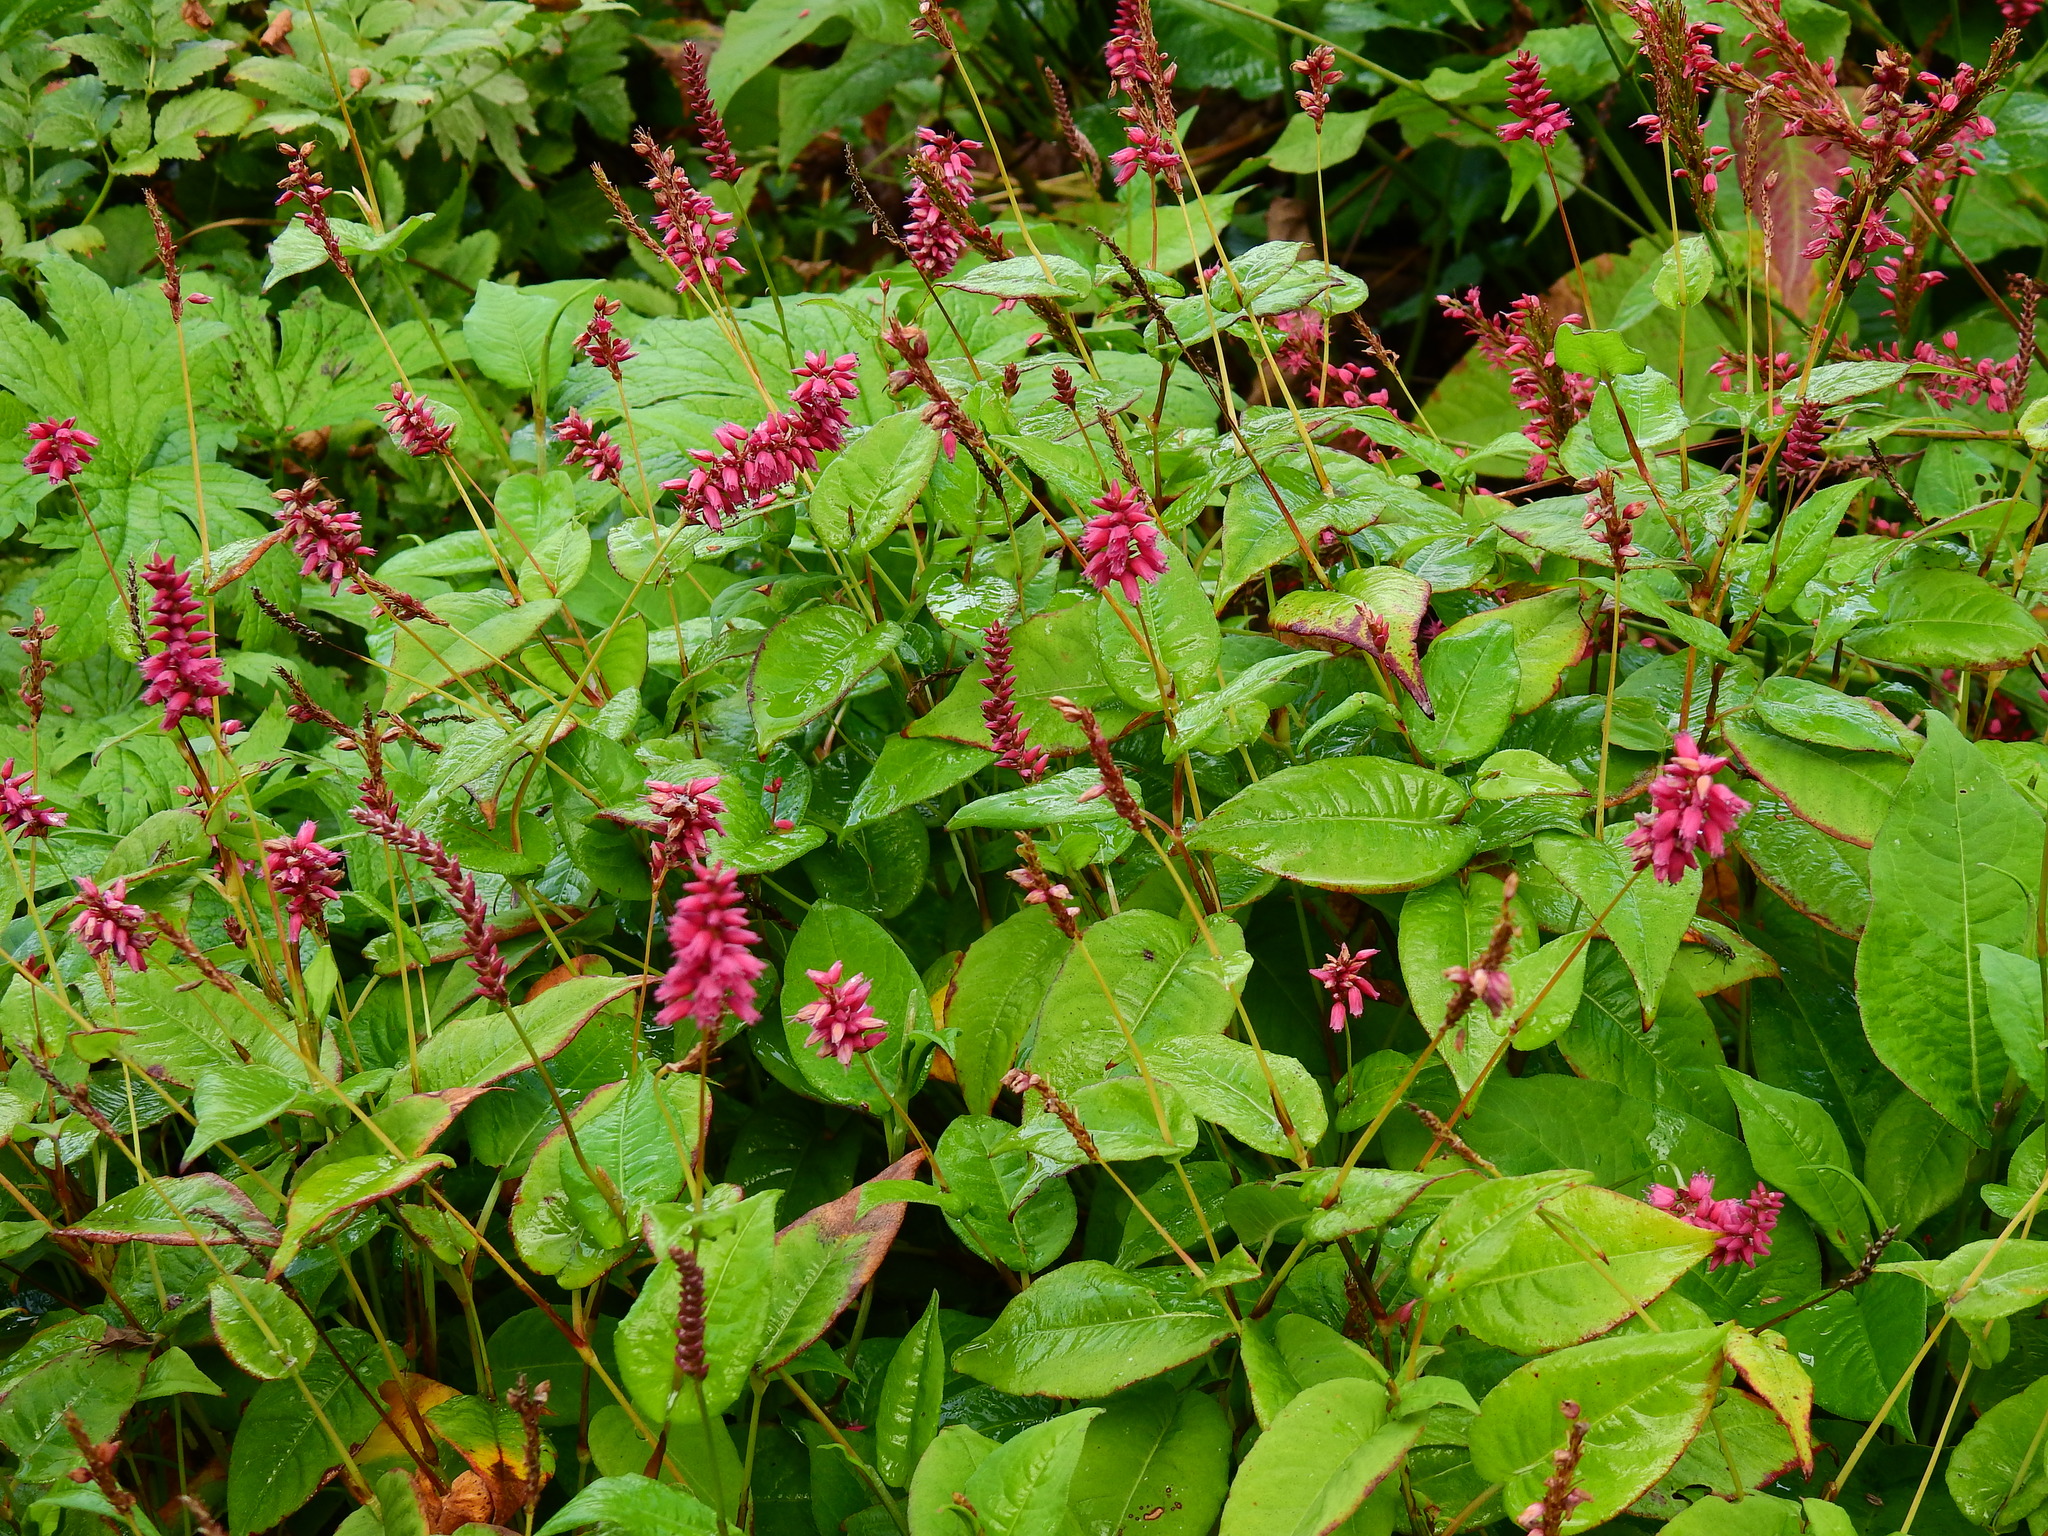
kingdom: Plantae
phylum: Tracheophyta
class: Magnoliopsida
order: Caryophyllales
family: Polygonaceae
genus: Bistorta
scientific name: Bistorta amplexicaulis
